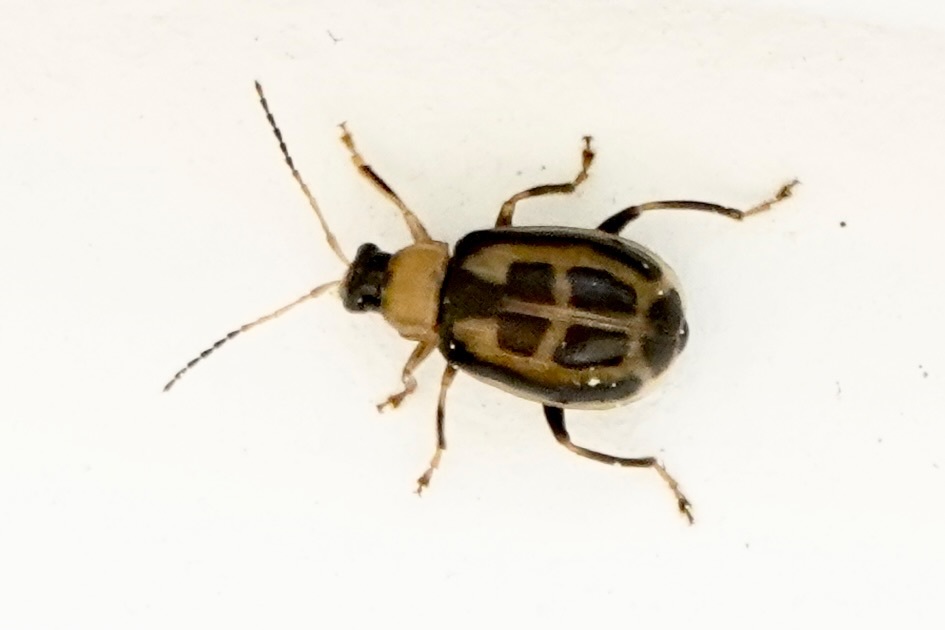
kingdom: Animalia
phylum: Arthropoda
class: Insecta
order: Coleoptera
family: Chrysomelidae
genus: Cerotoma
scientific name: Cerotoma trifurcata
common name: Bean leaf beetle
